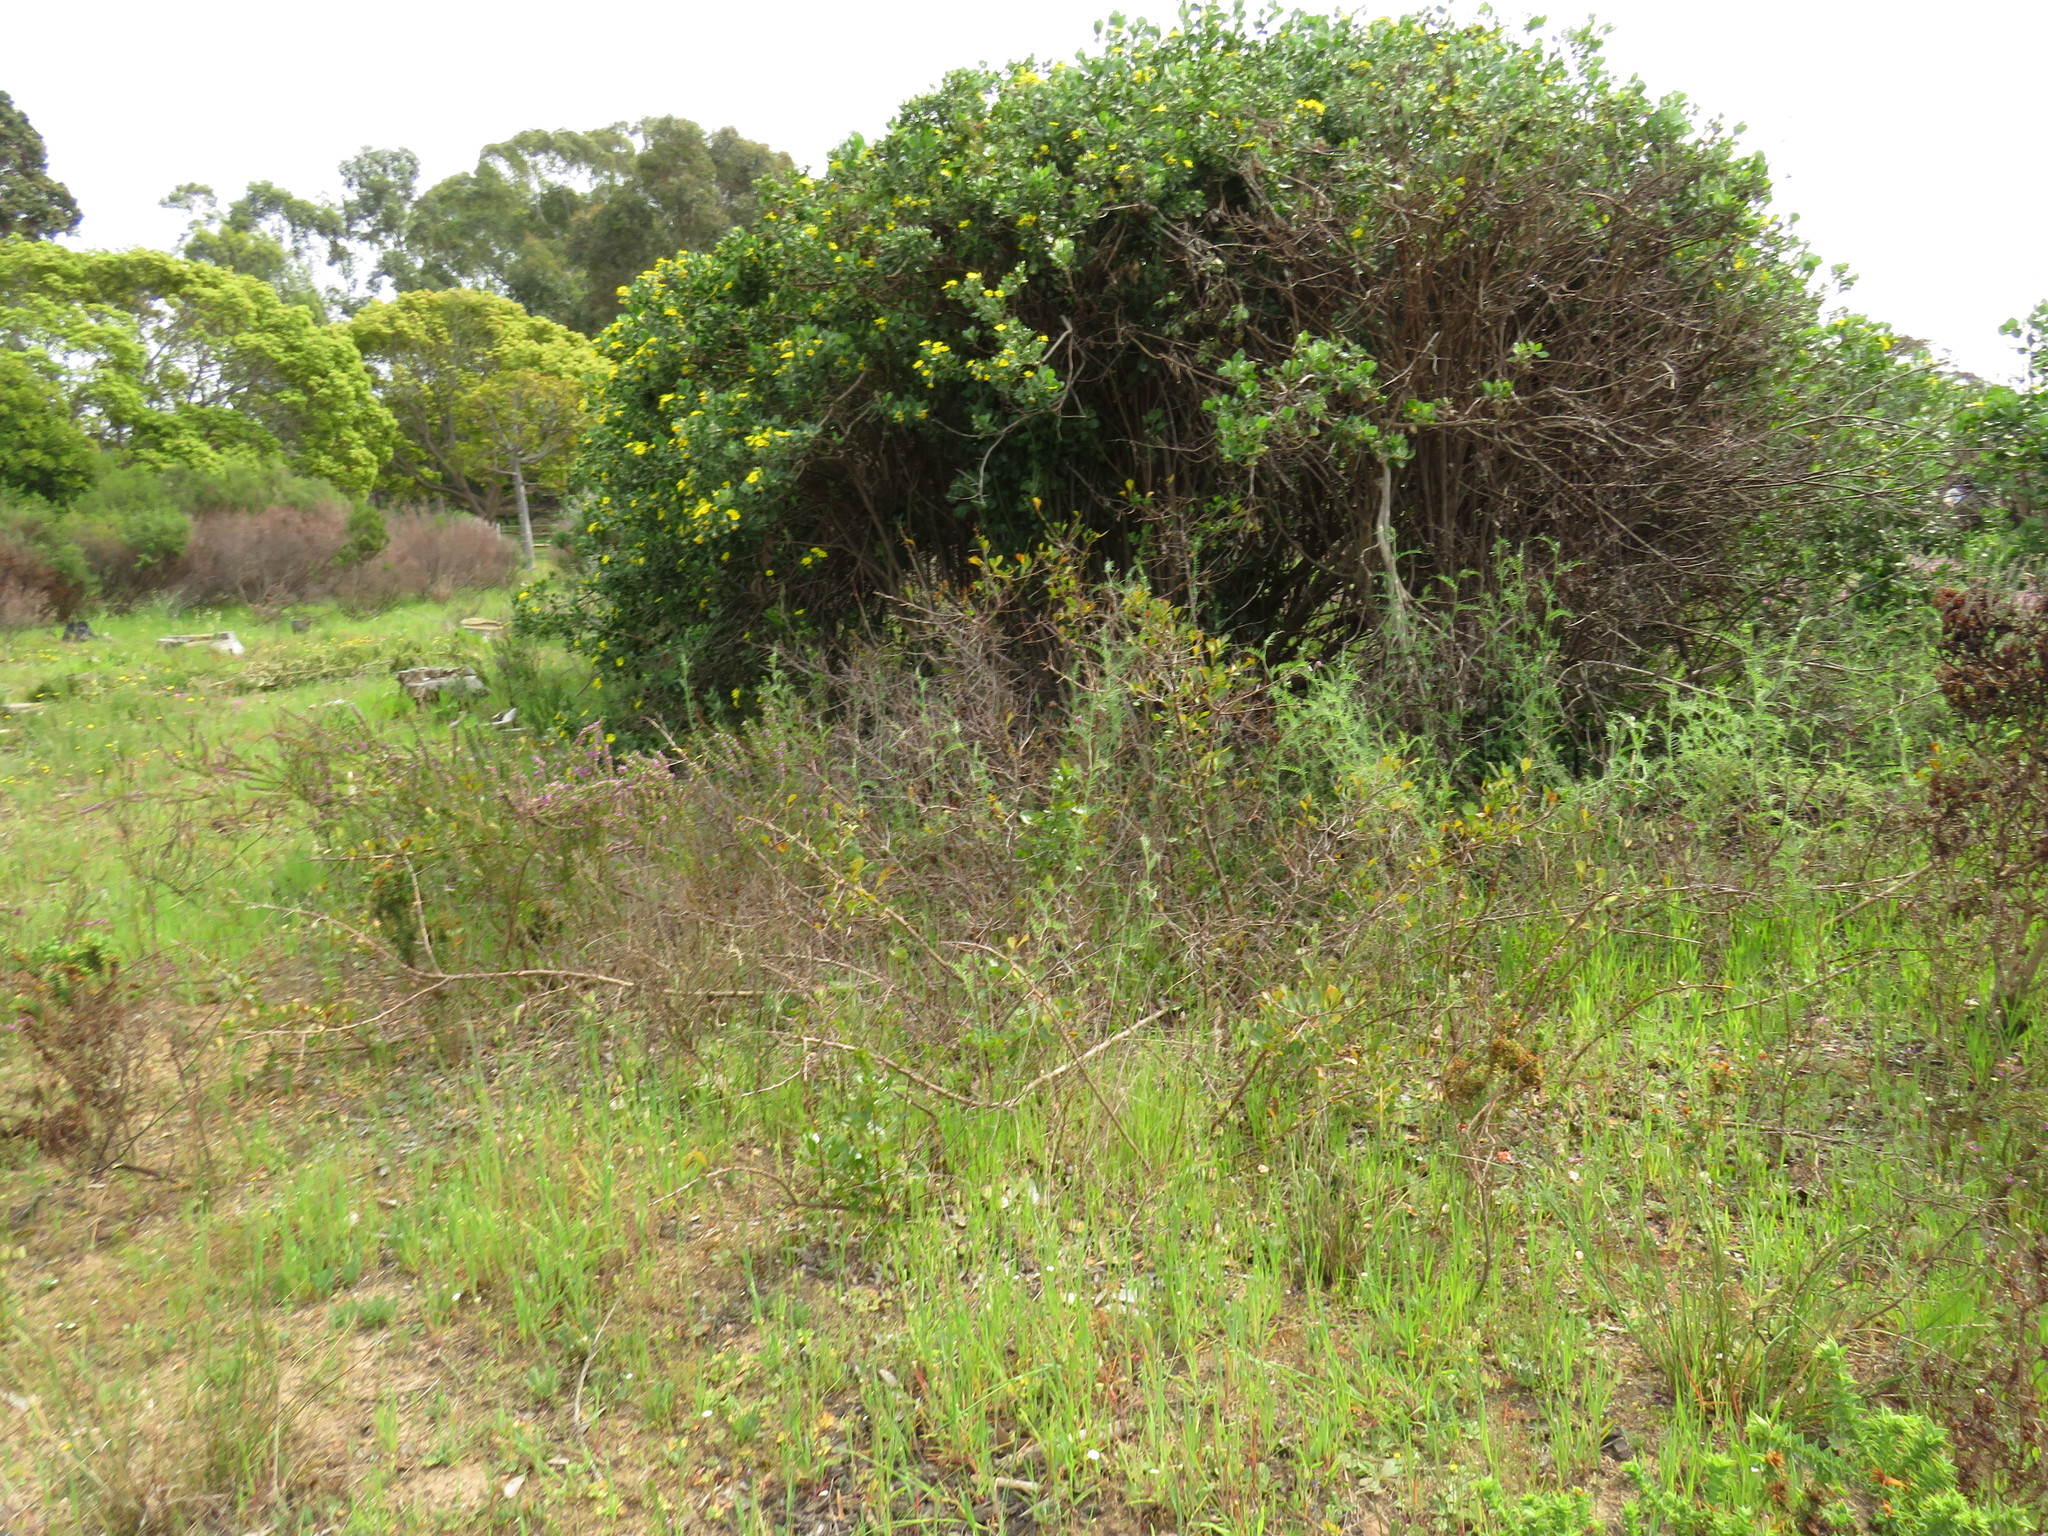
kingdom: Plantae
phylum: Tracheophyta
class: Magnoliopsida
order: Sapindales
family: Anacardiaceae
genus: Searsia
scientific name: Searsia laevigata
